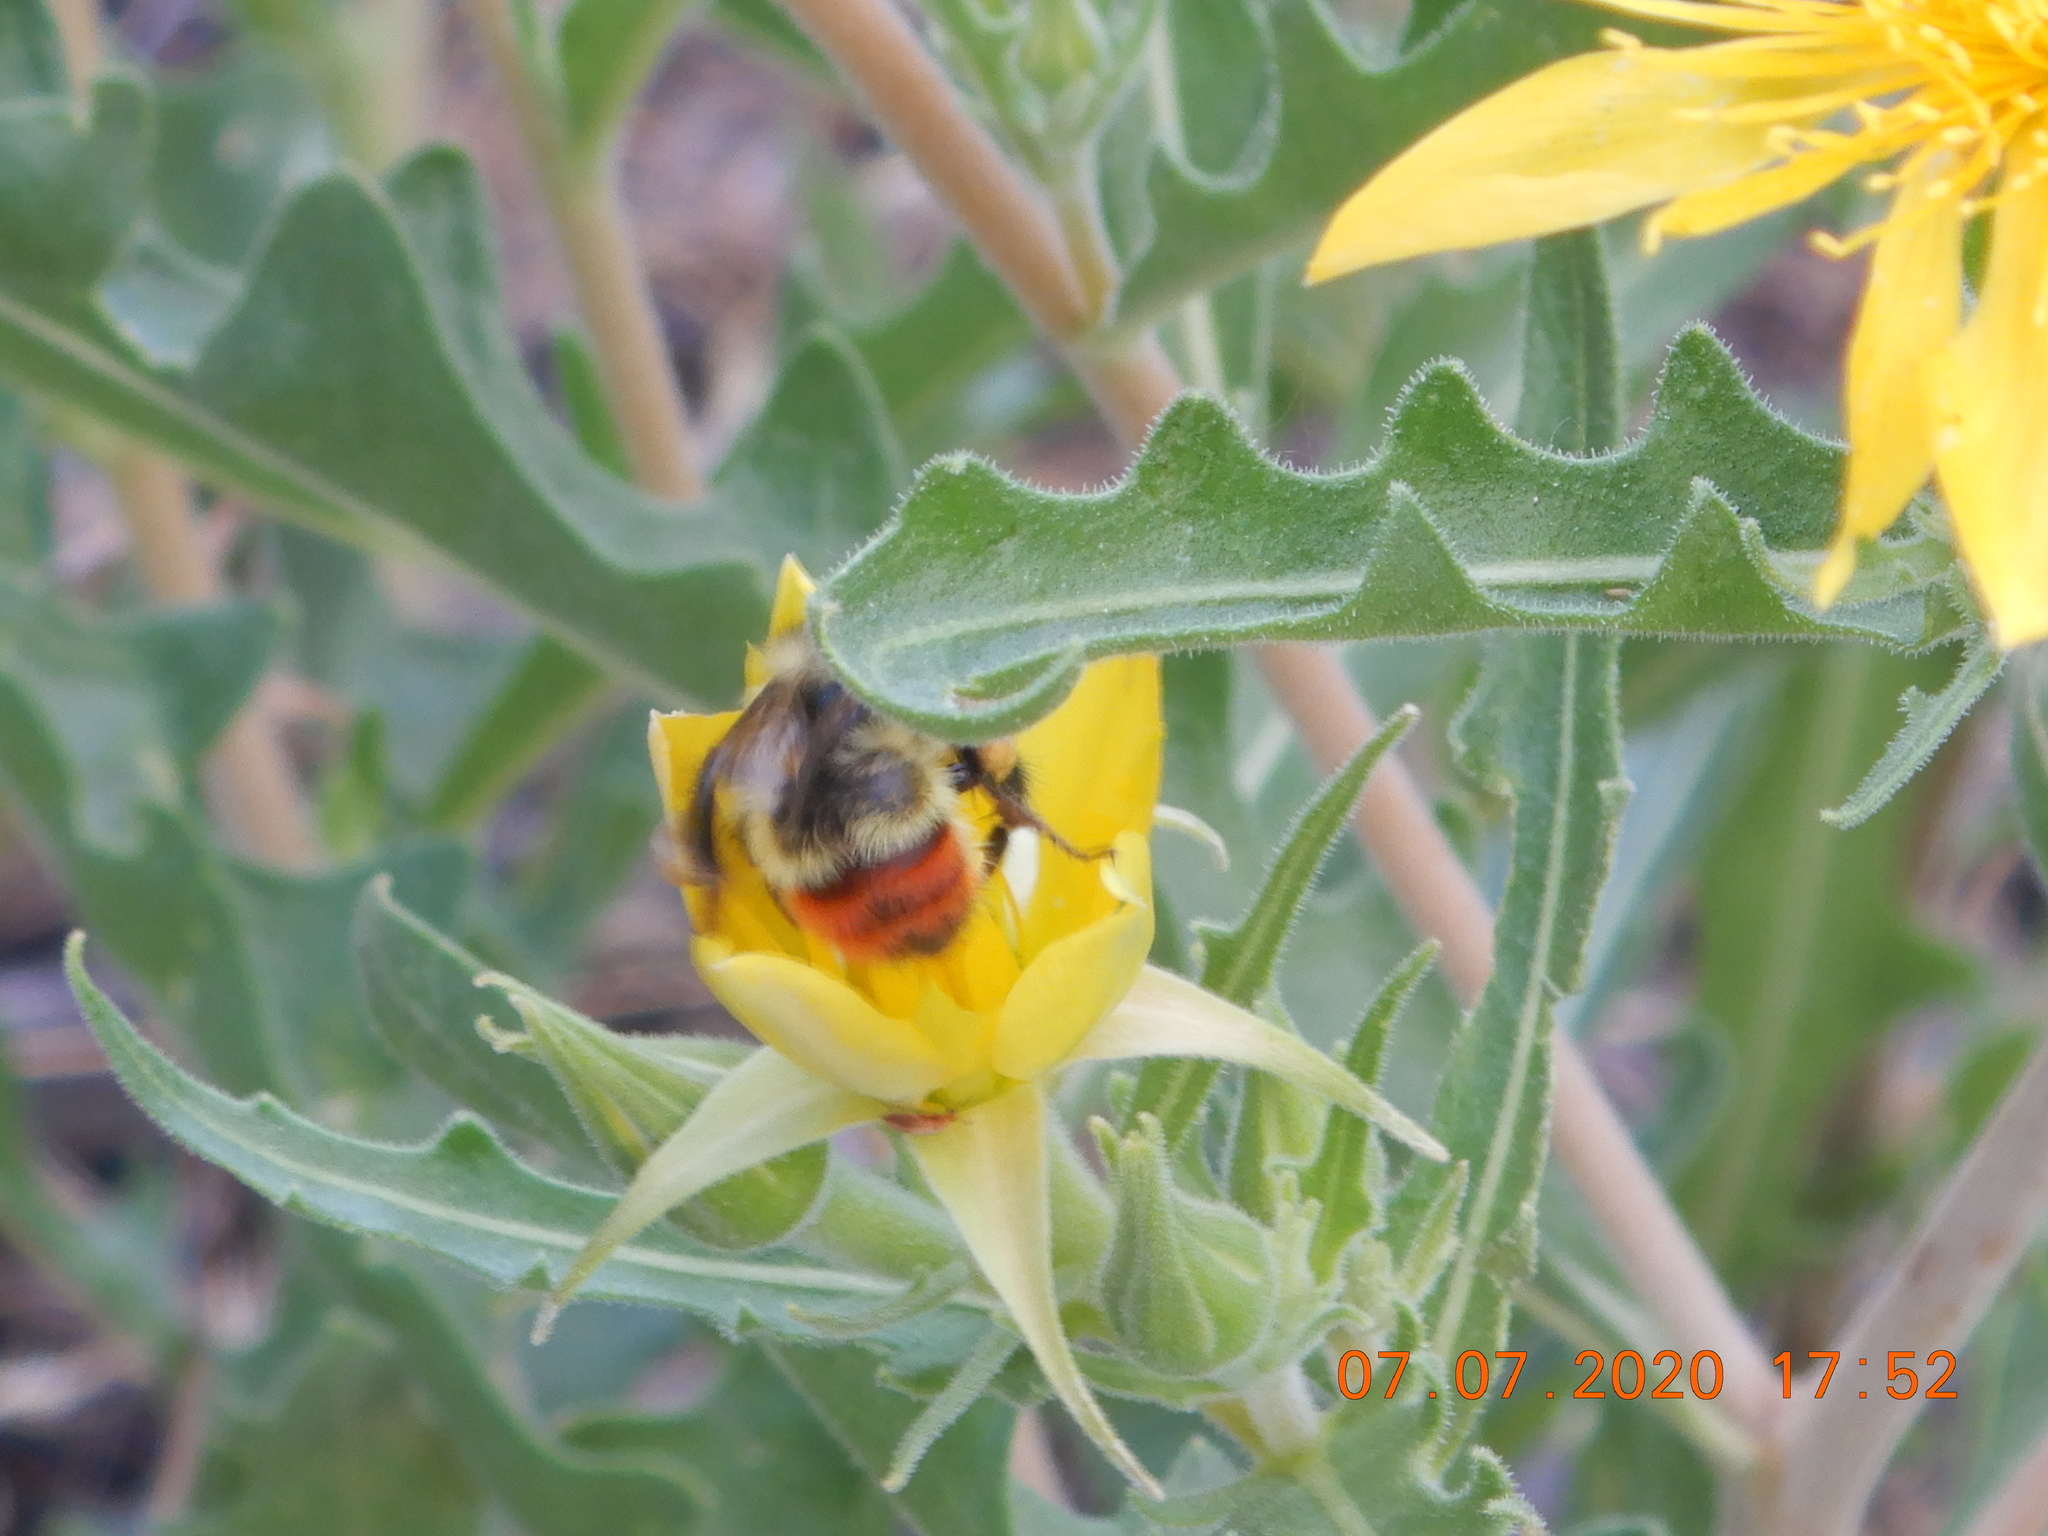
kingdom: Animalia
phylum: Arthropoda
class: Insecta
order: Hymenoptera
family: Apidae
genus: Pyrobombus
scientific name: Pyrobombus
